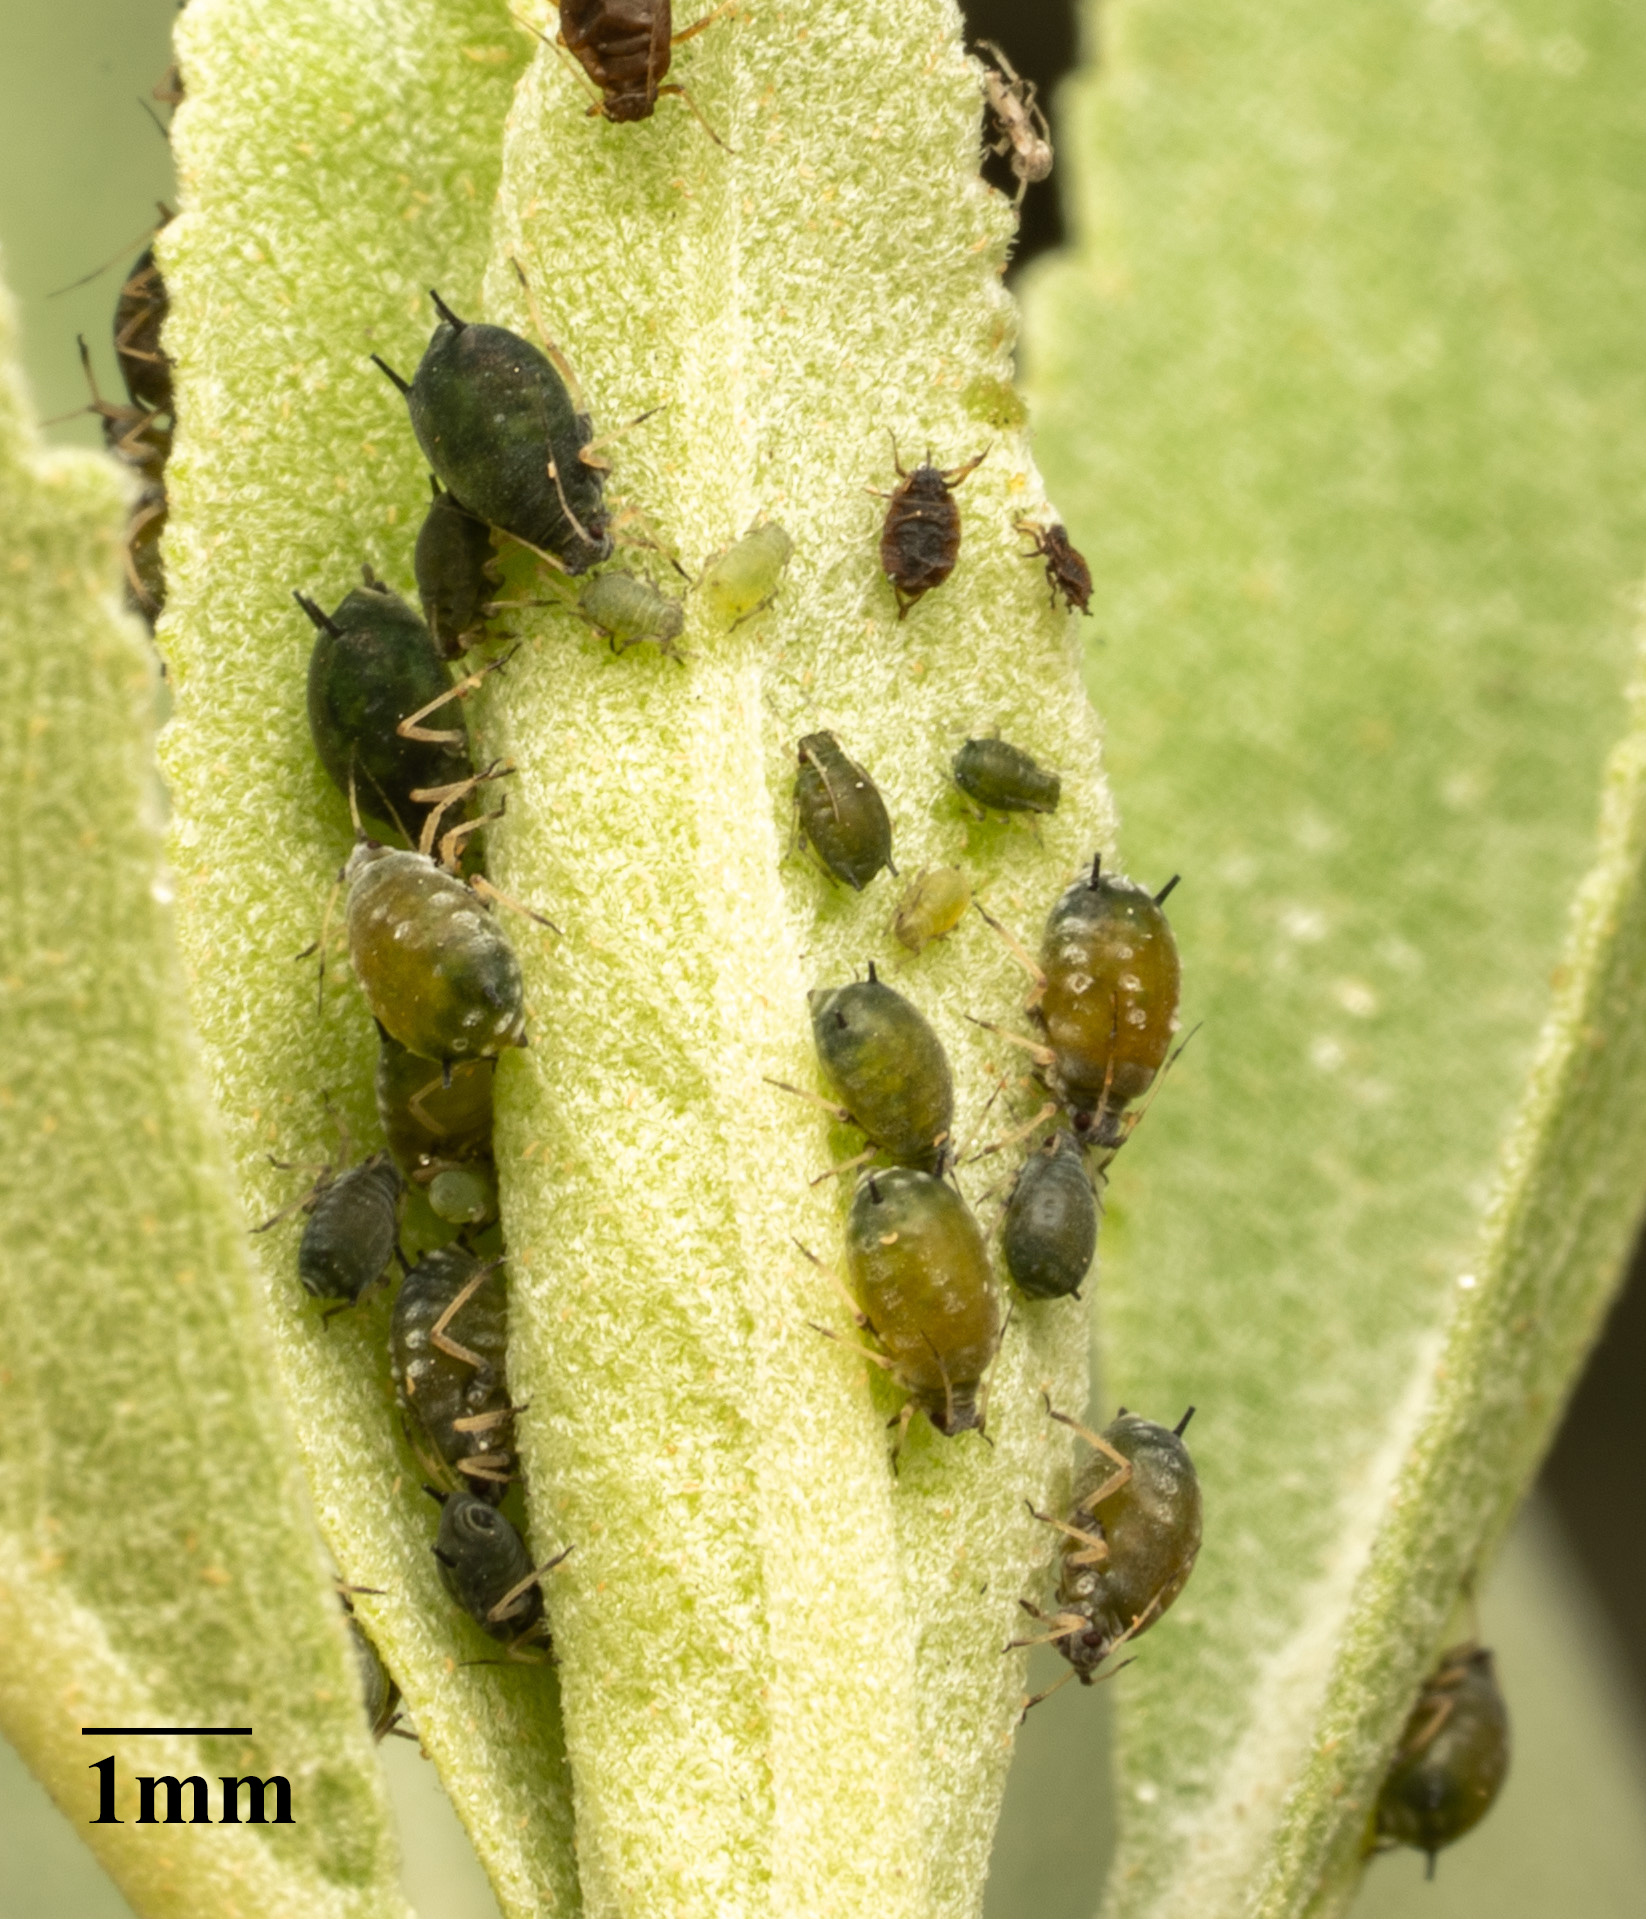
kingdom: Animalia
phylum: Arthropoda
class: Insecta
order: Hemiptera
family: Aphididae
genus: Aphis
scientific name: Aphis gossypii
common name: Melon aphid
